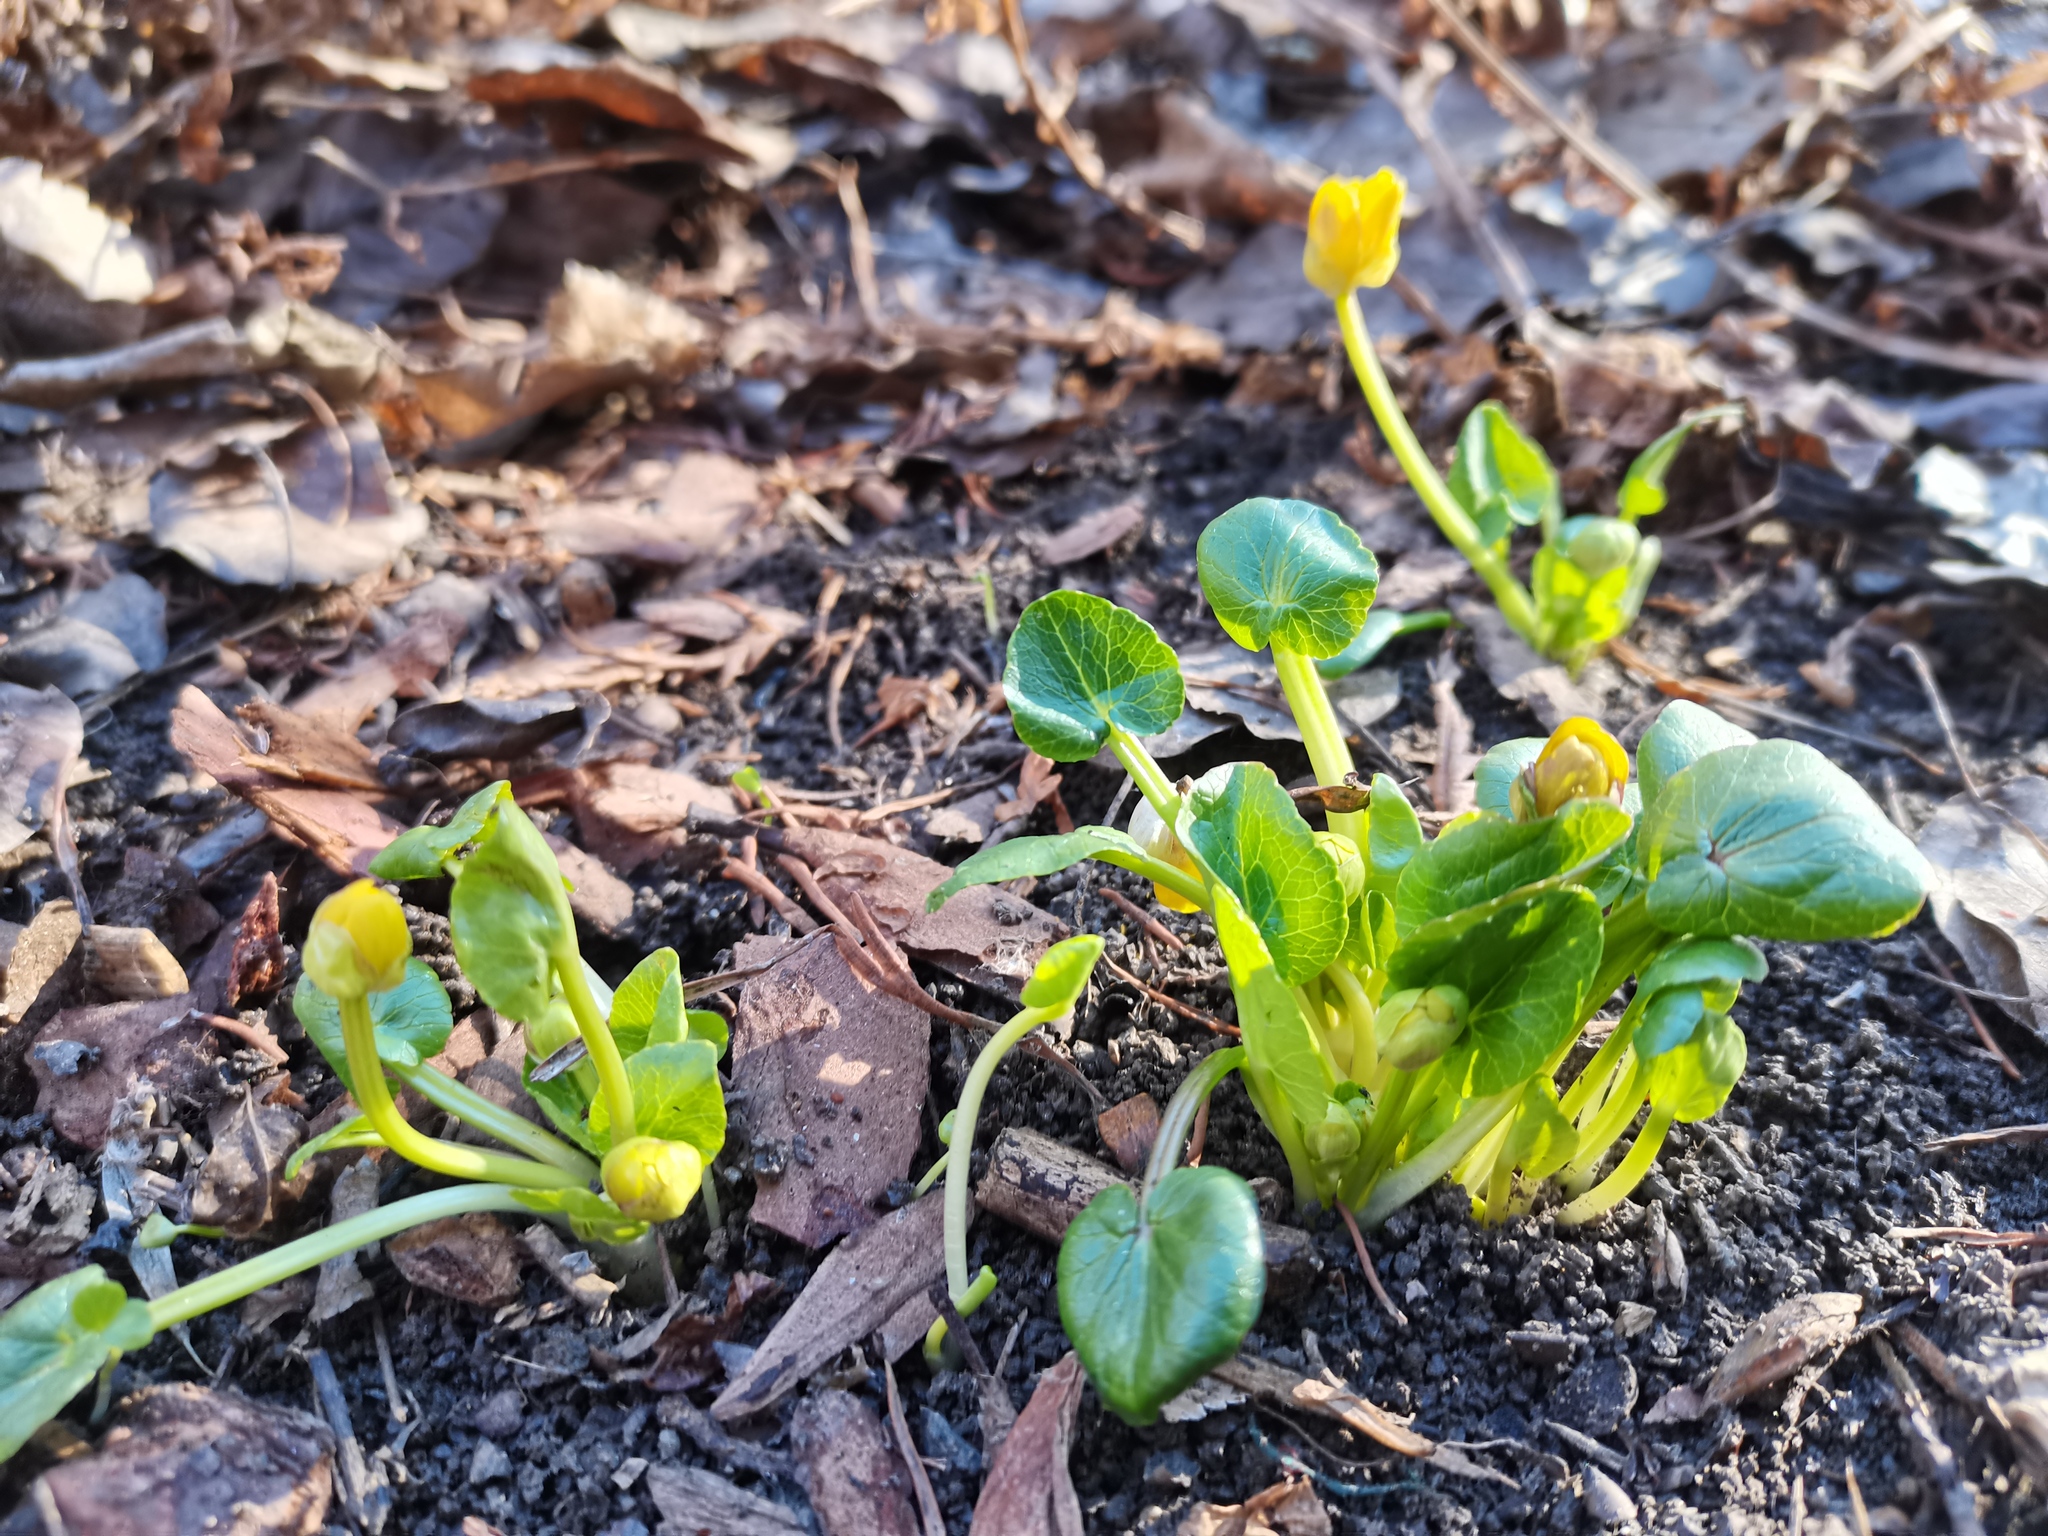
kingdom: Plantae
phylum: Tracheophyta
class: Magnoliopsida
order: Ranunculales
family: Ranunculaceae
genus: Ficaria
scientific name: Ficaria verna
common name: Lesser celandine
